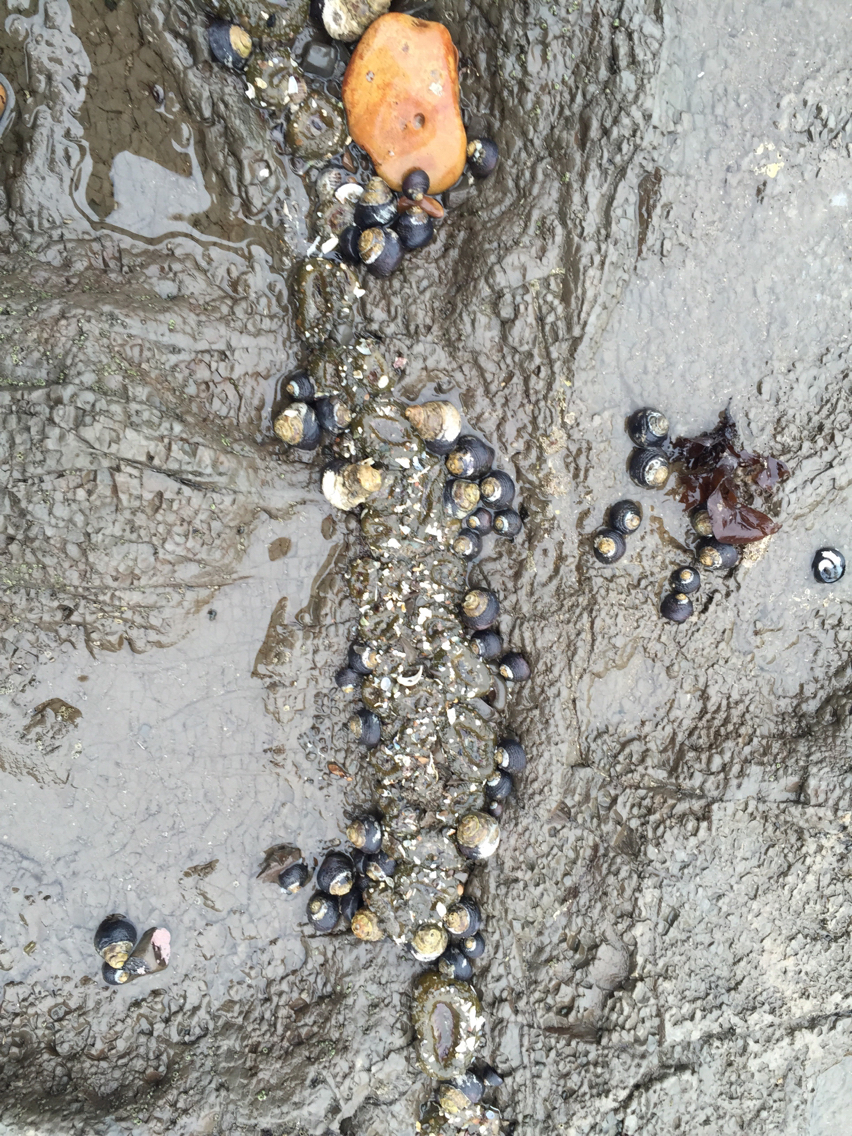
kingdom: Animalia
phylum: Cnidaria
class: Anthozoa
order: Actiniaria
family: Actiniidae
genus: Anthopleura
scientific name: Anthopleura elegantissima
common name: Clonal anemone
